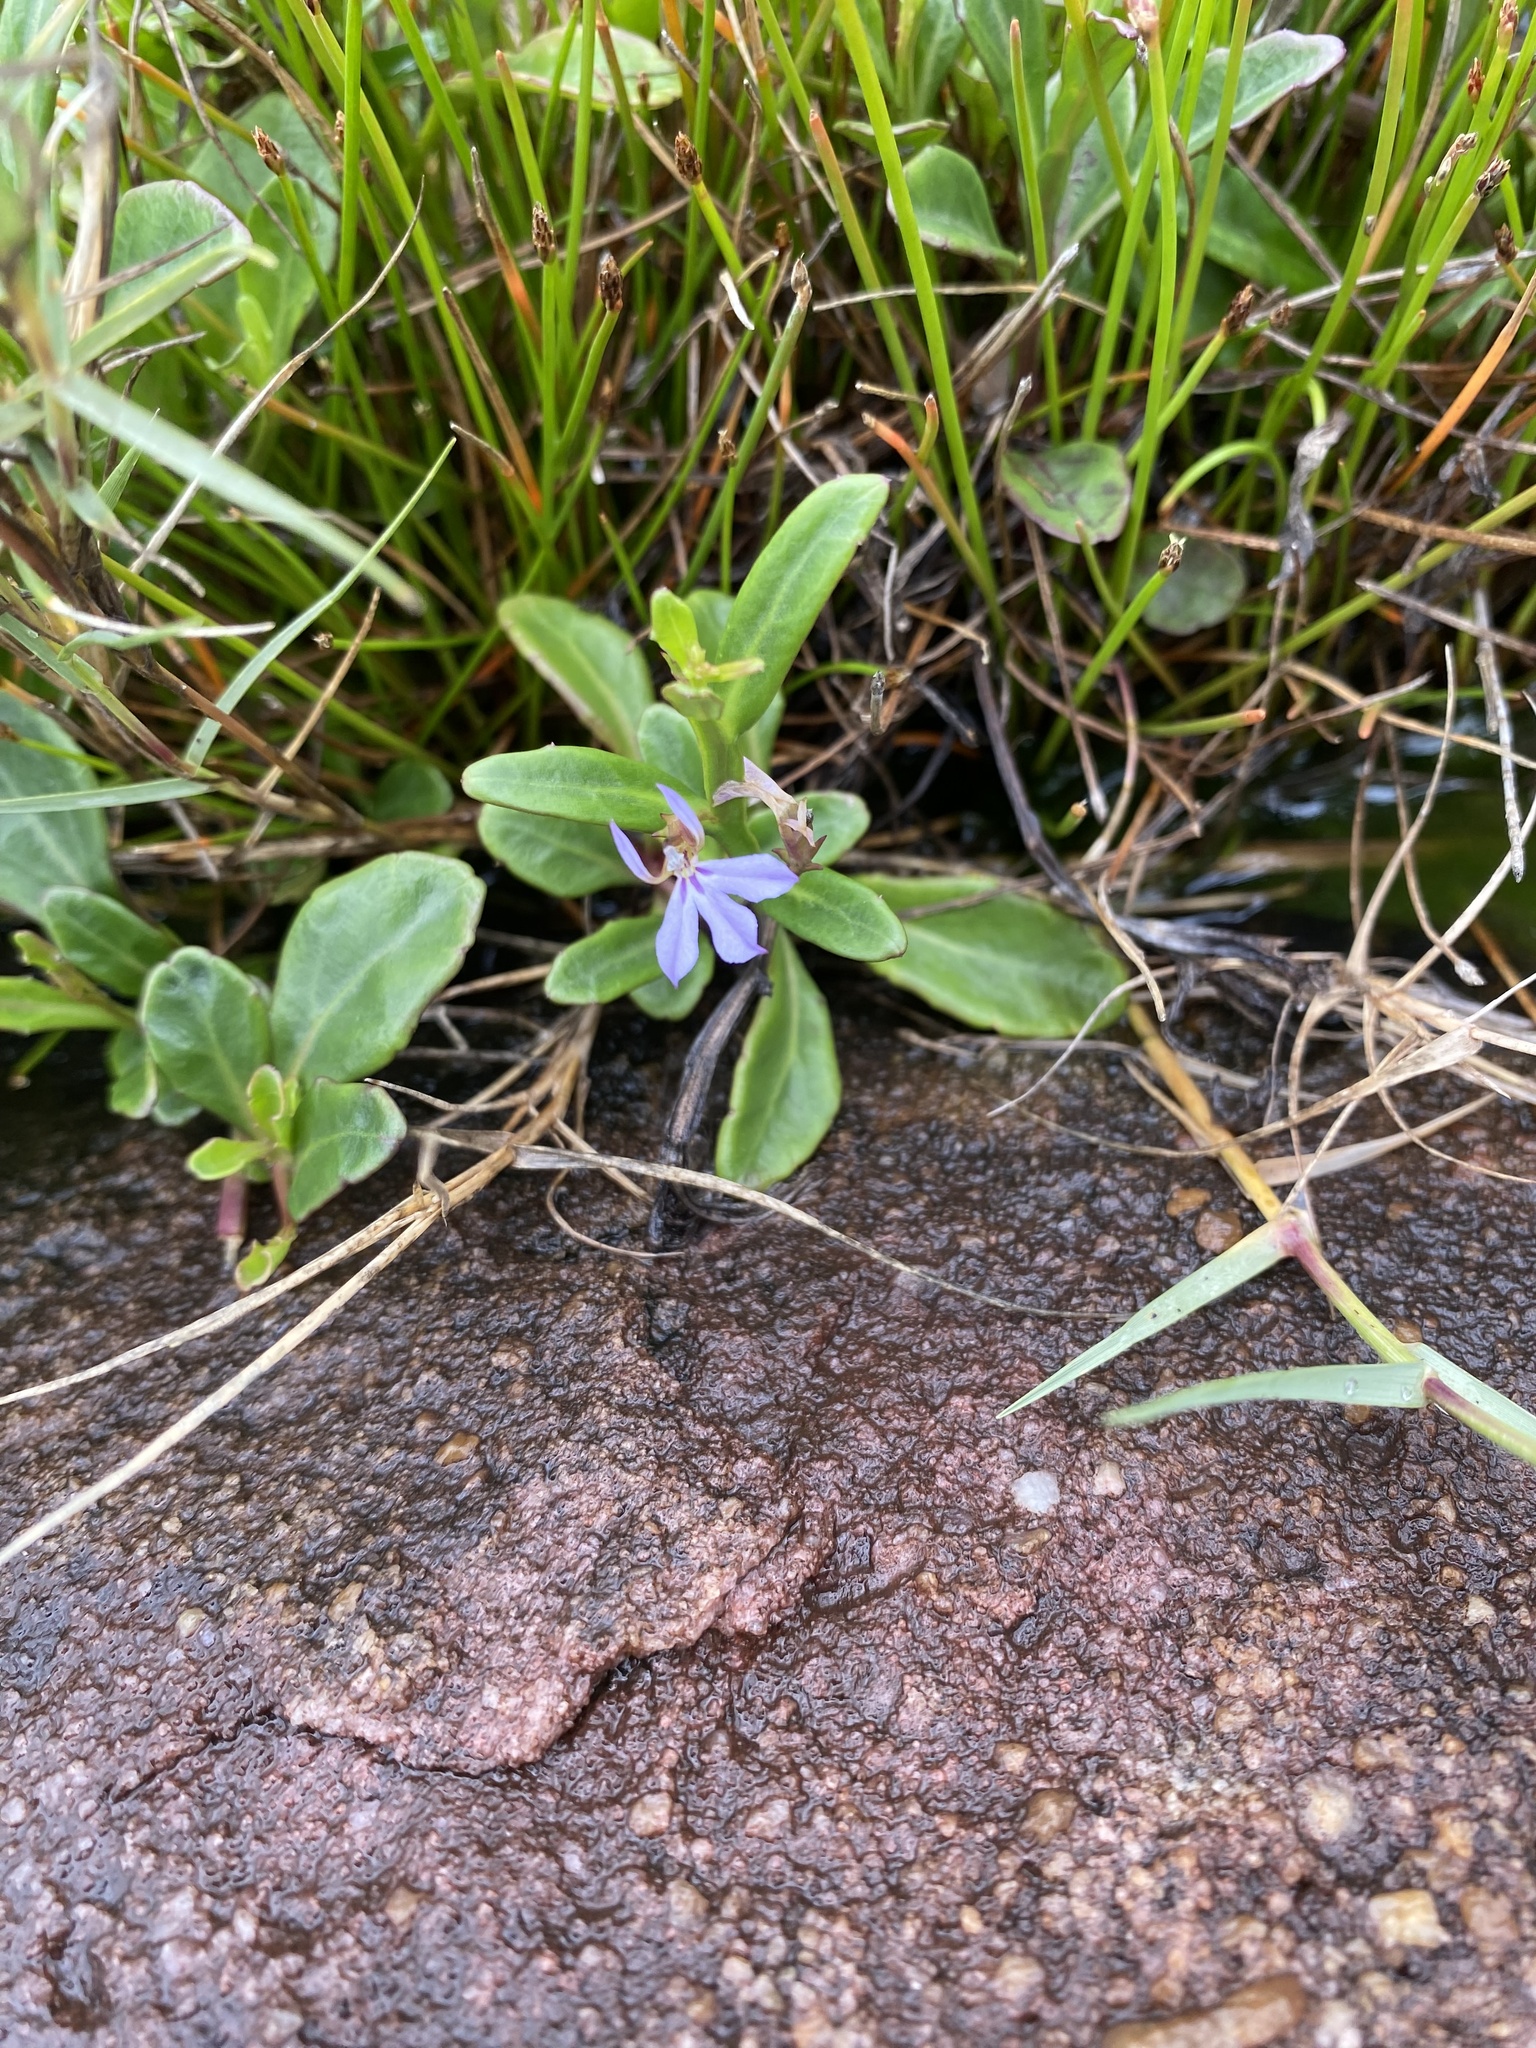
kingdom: Plantae
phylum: Tracheophyta
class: Magnoliopsida
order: Asterales
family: Campanulaceae
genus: Lobelia
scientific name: Lobelia anceps
